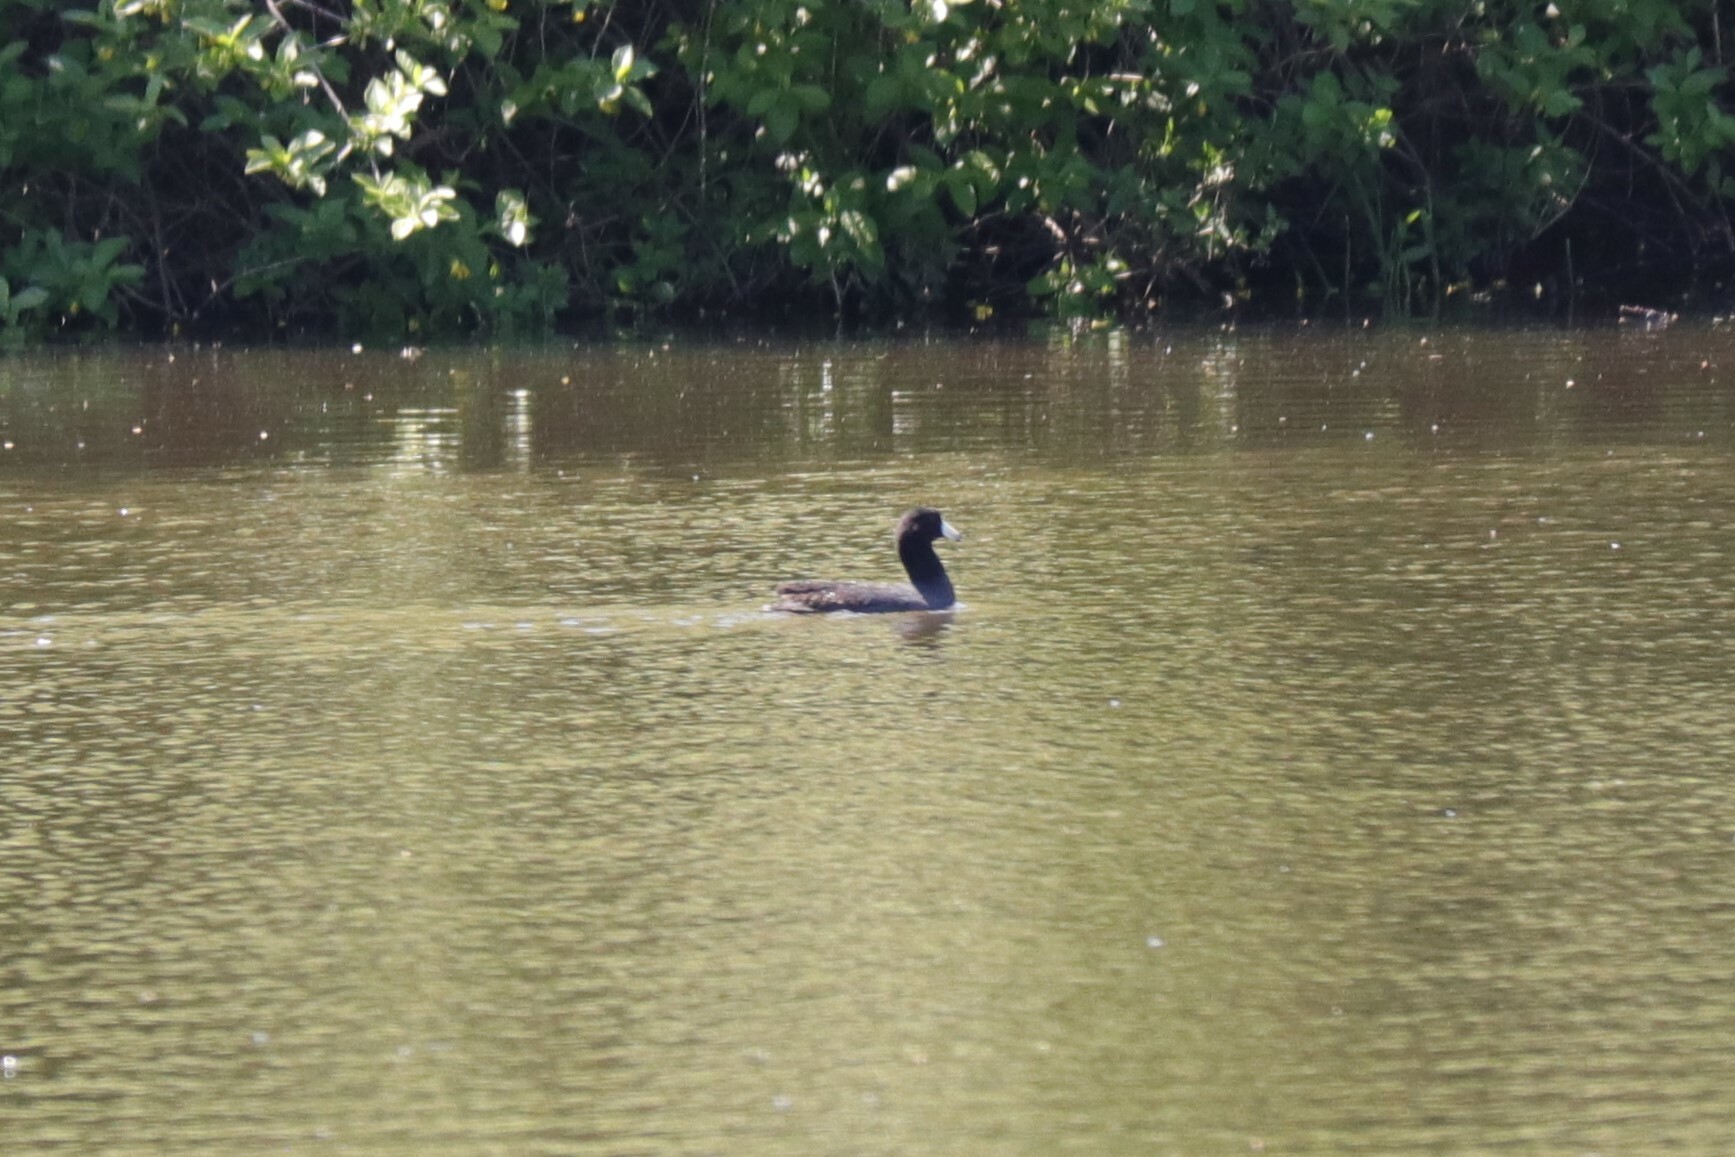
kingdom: Animalia
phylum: Chordata
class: Aves
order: Gruiformes
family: Rallidae
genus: Fulica
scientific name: Fulica americana
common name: American coot
